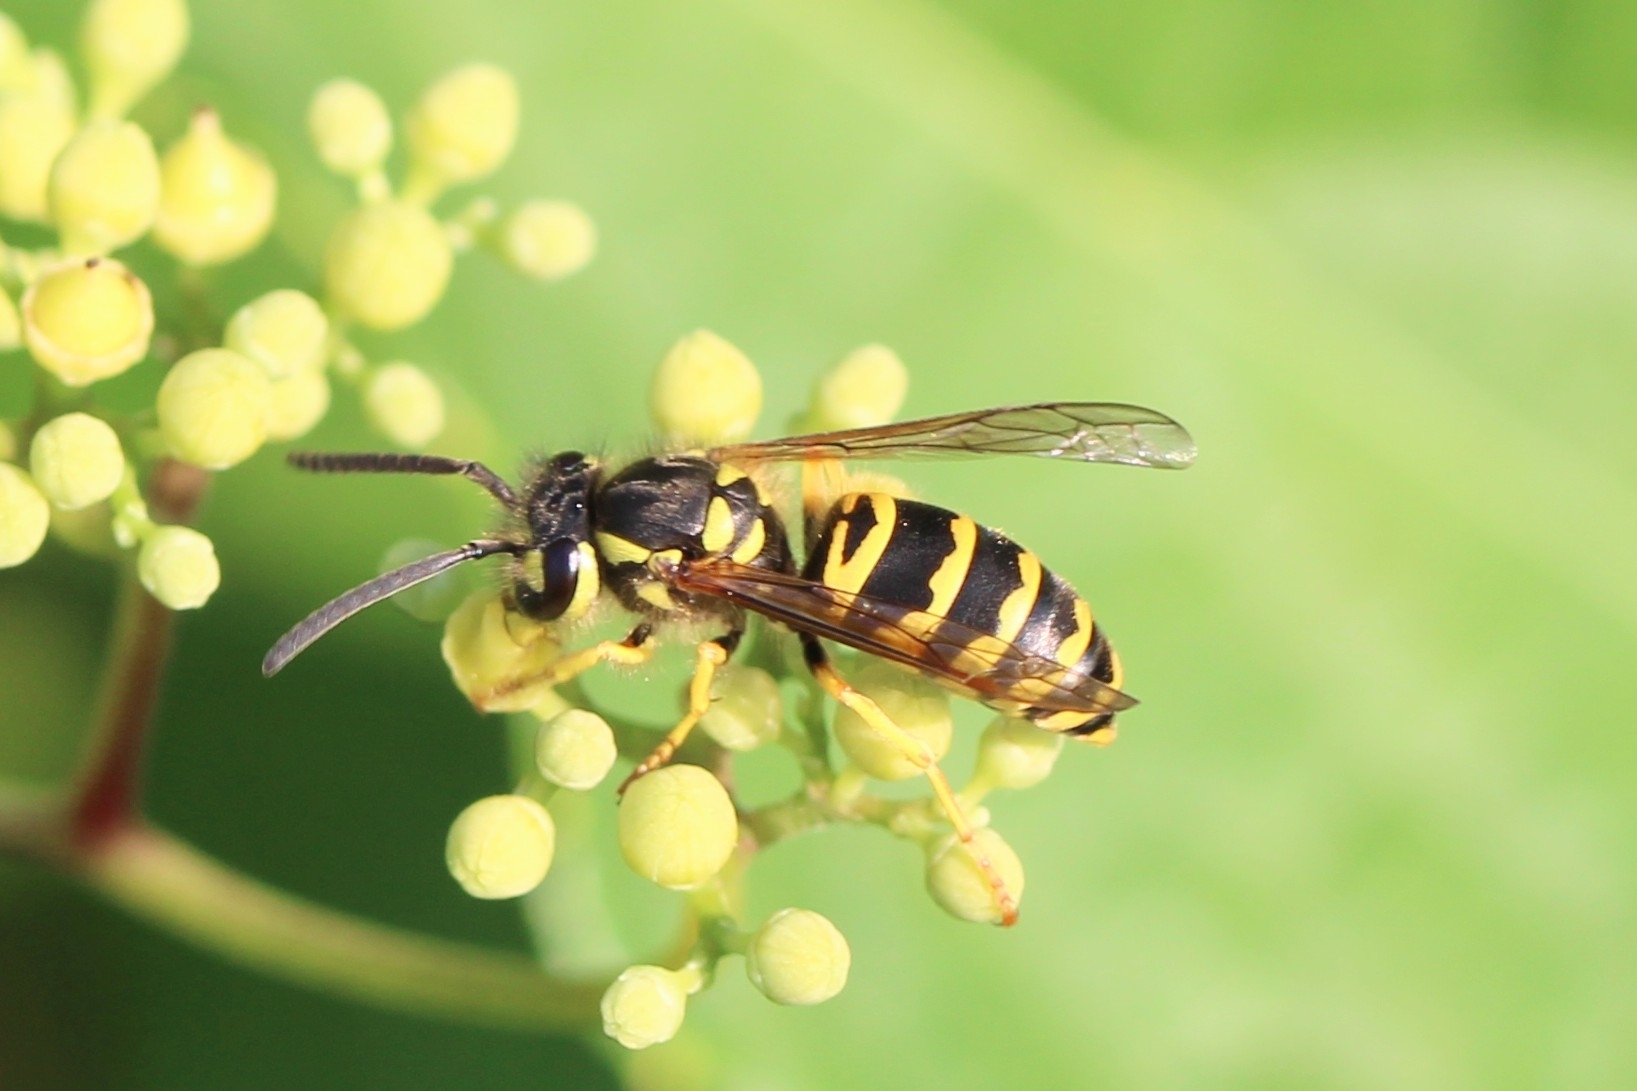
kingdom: Animalia
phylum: Arthropoda
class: Insecta
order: Hymenoptera
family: Vespidae
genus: Vespula
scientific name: Vespula maculifrons
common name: Eastern yellowjacket
